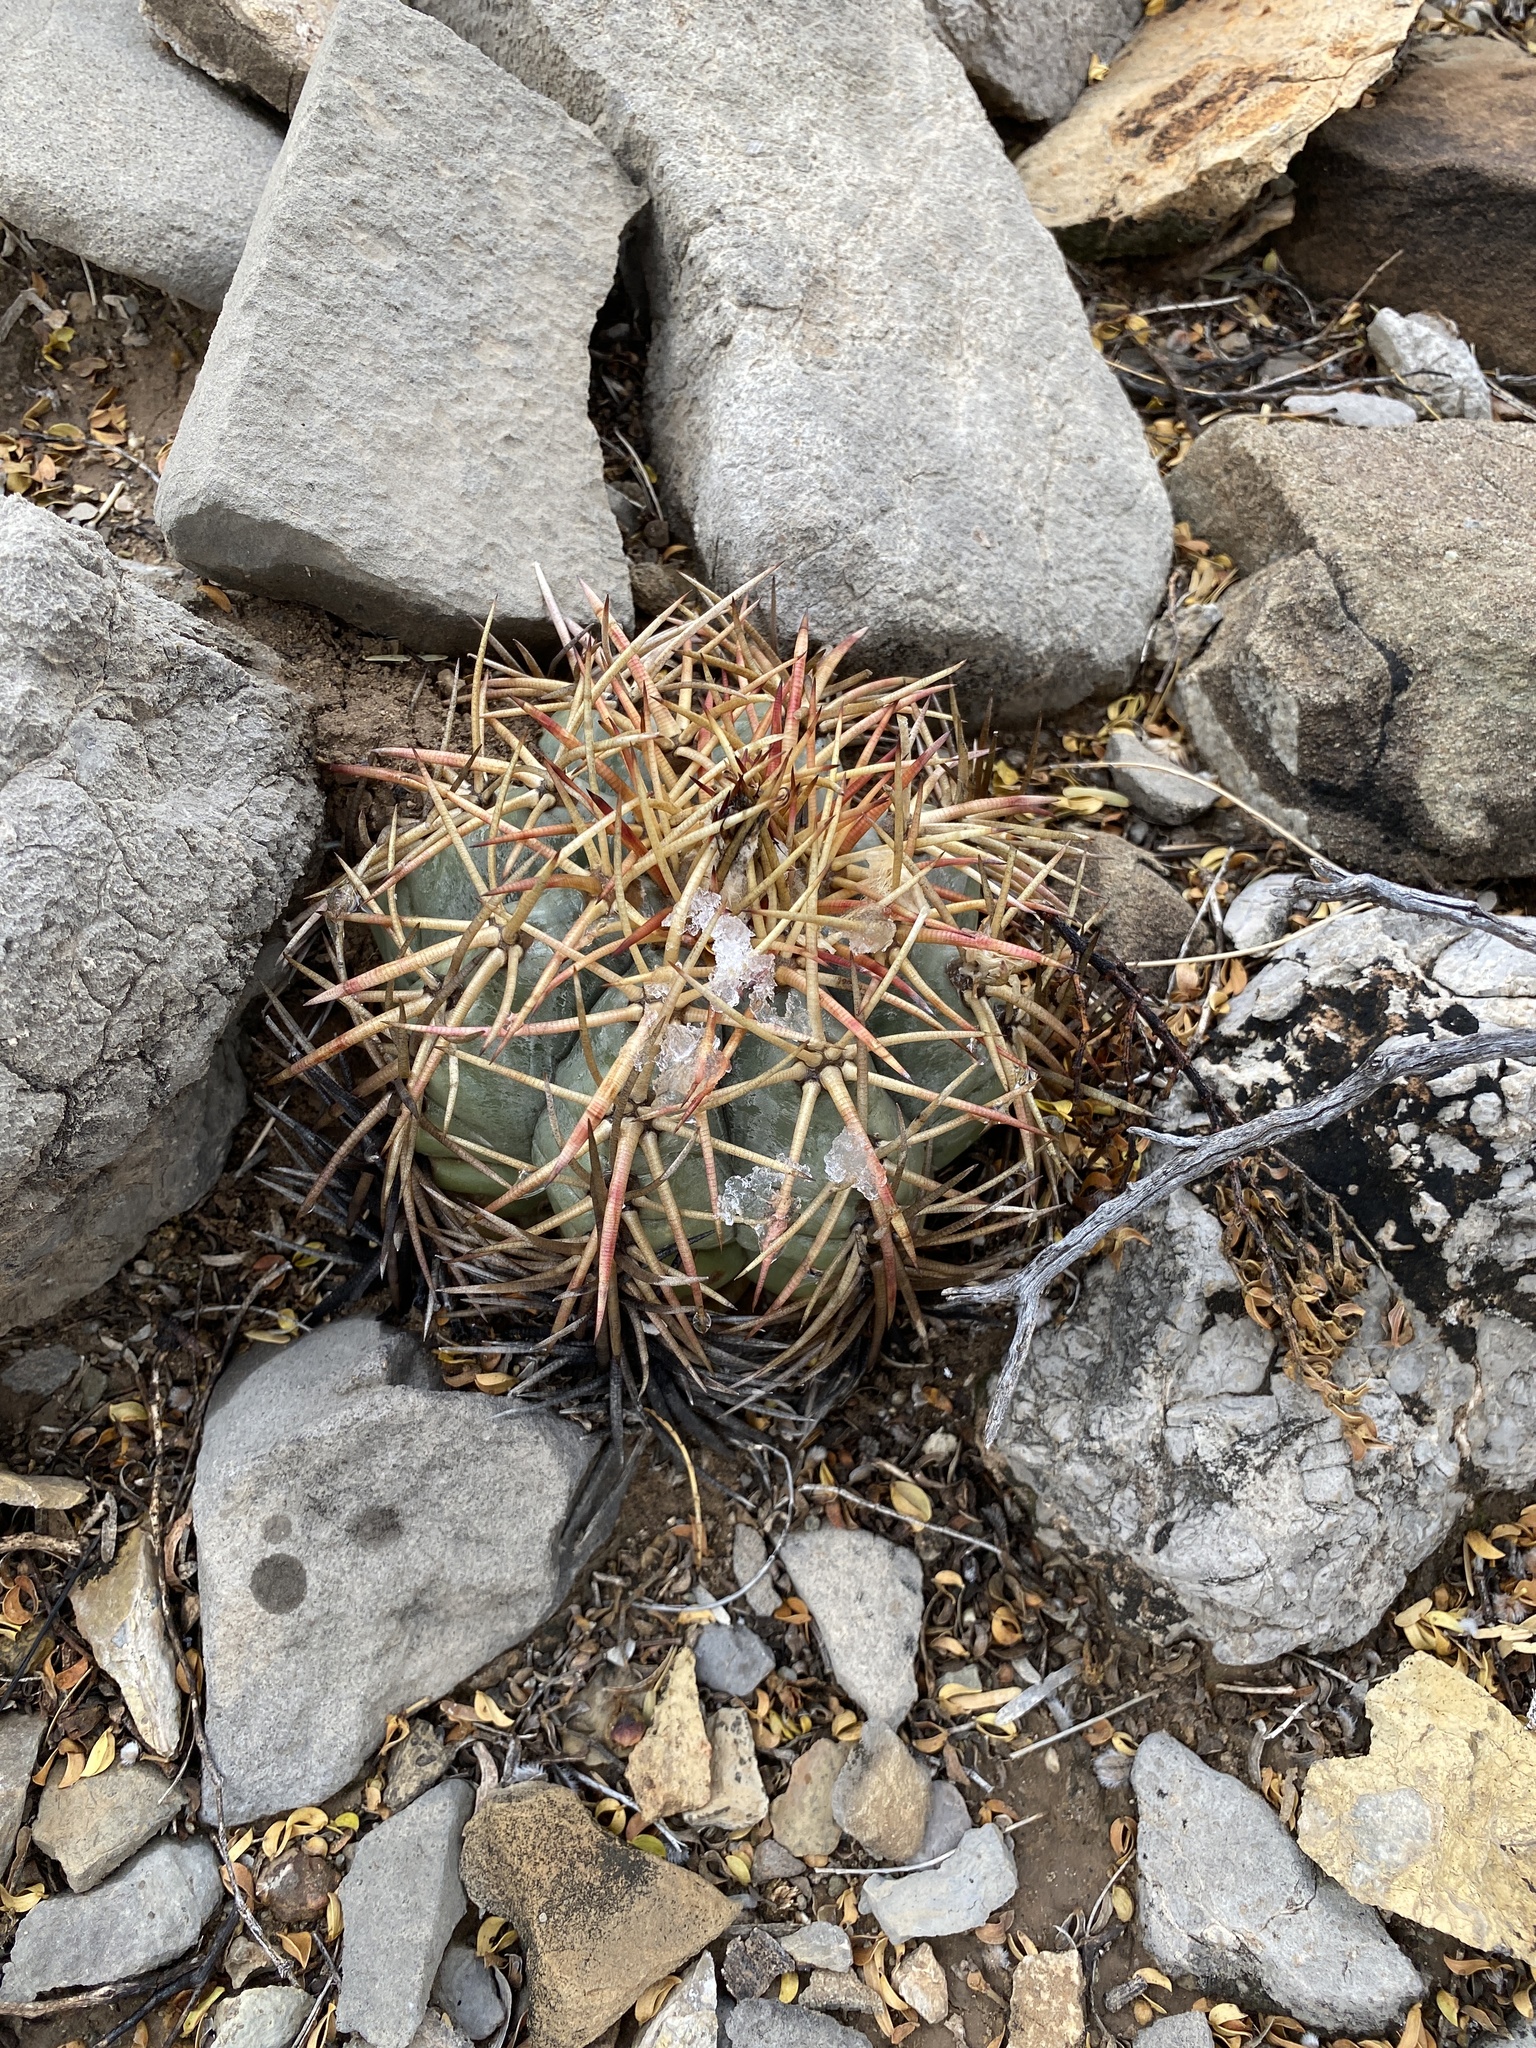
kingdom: Plantae
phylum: Tracheophyta
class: Magnoliopsida
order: Caryophyllales
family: Cactaceae
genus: Echinocactus
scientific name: Echinocactus horizonthalonius
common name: Devilshead
